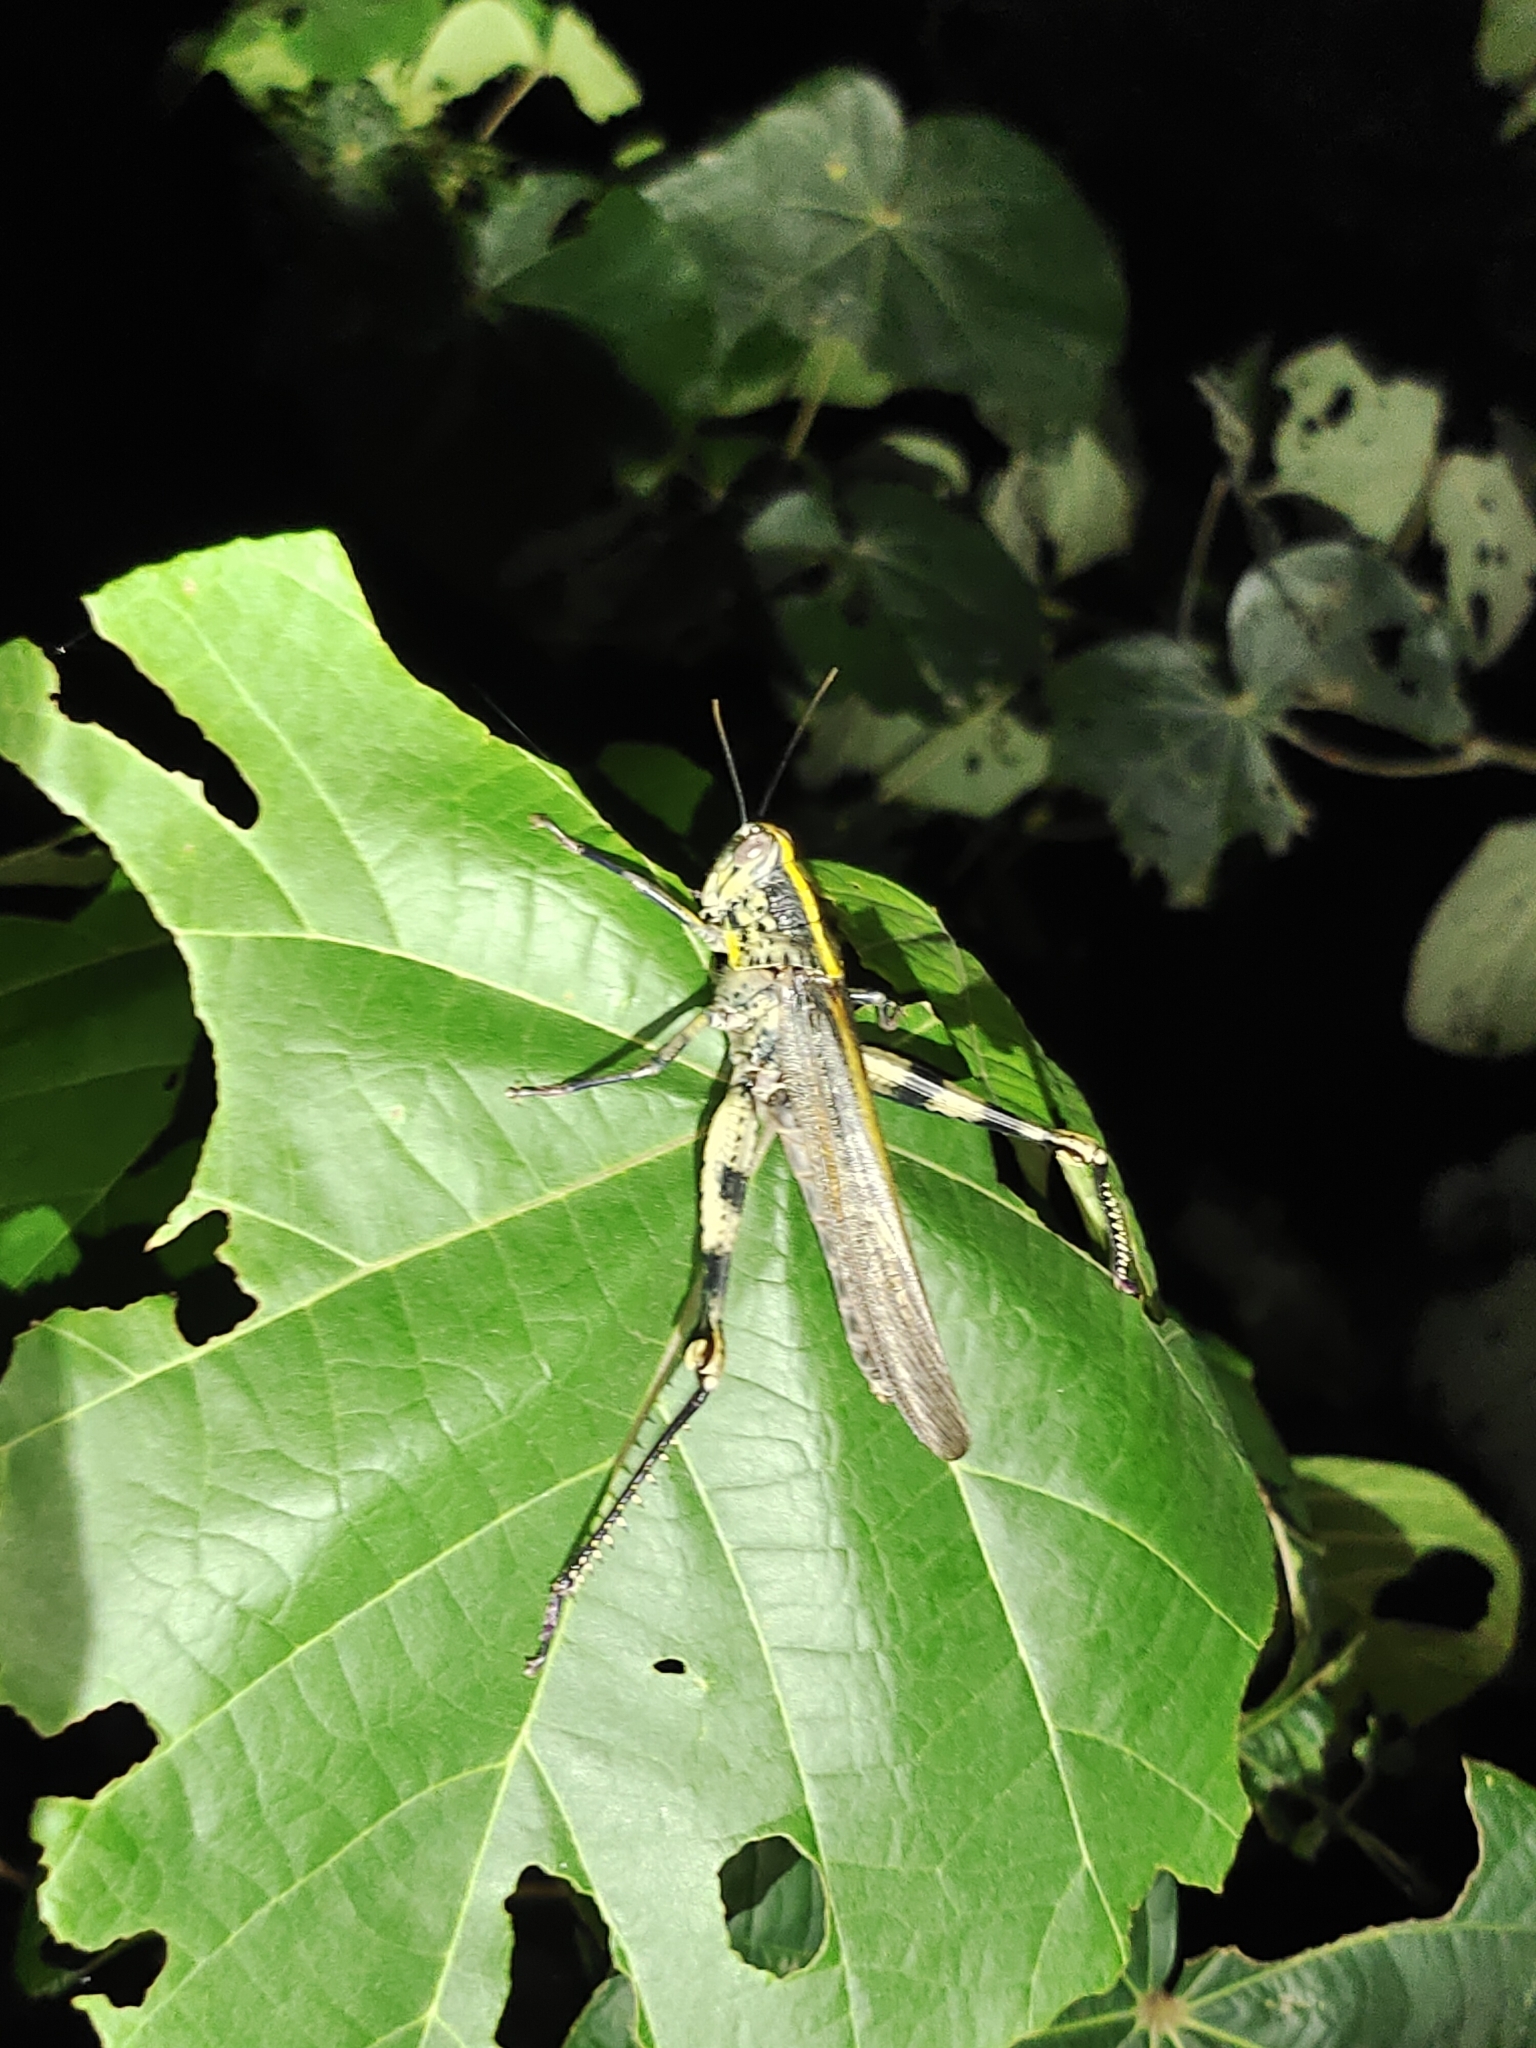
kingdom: Animalia
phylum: Arthropoda
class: Insecta
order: Orthoptera
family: Acrididae
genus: Valanga
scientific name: Valanga nigricornis
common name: Javanese bird grasshopper
